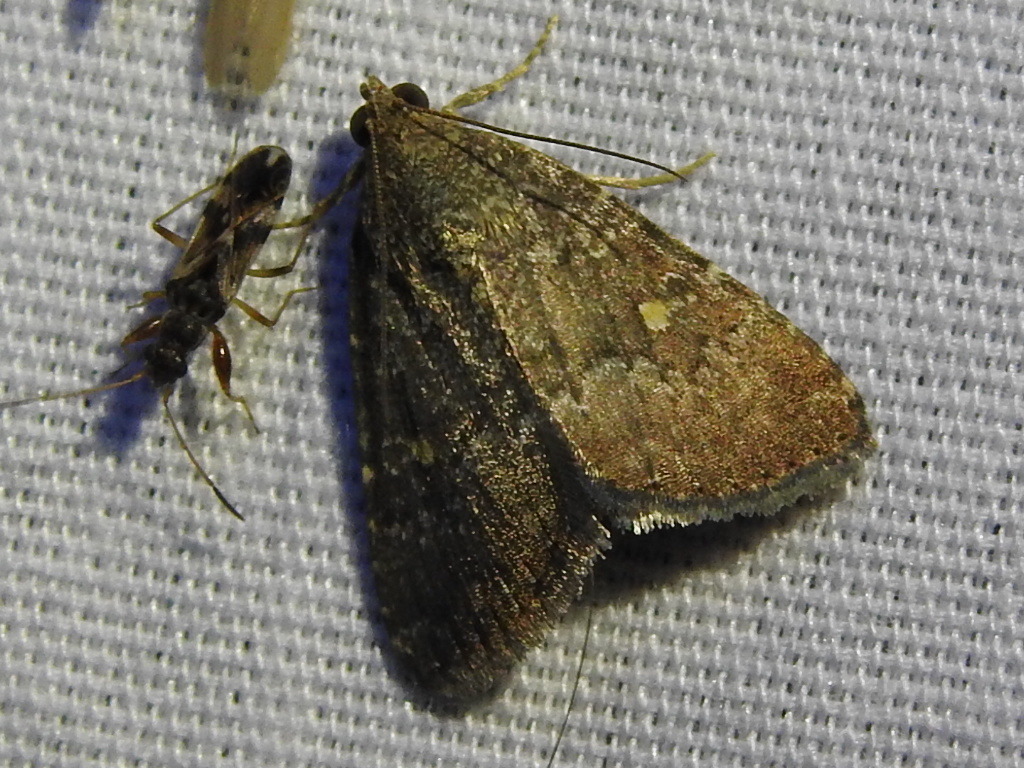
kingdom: Animalia
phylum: Arthropoda
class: Insecta
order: Lepidoptera
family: Noctuidae
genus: Amyna
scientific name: Amyna stricta
